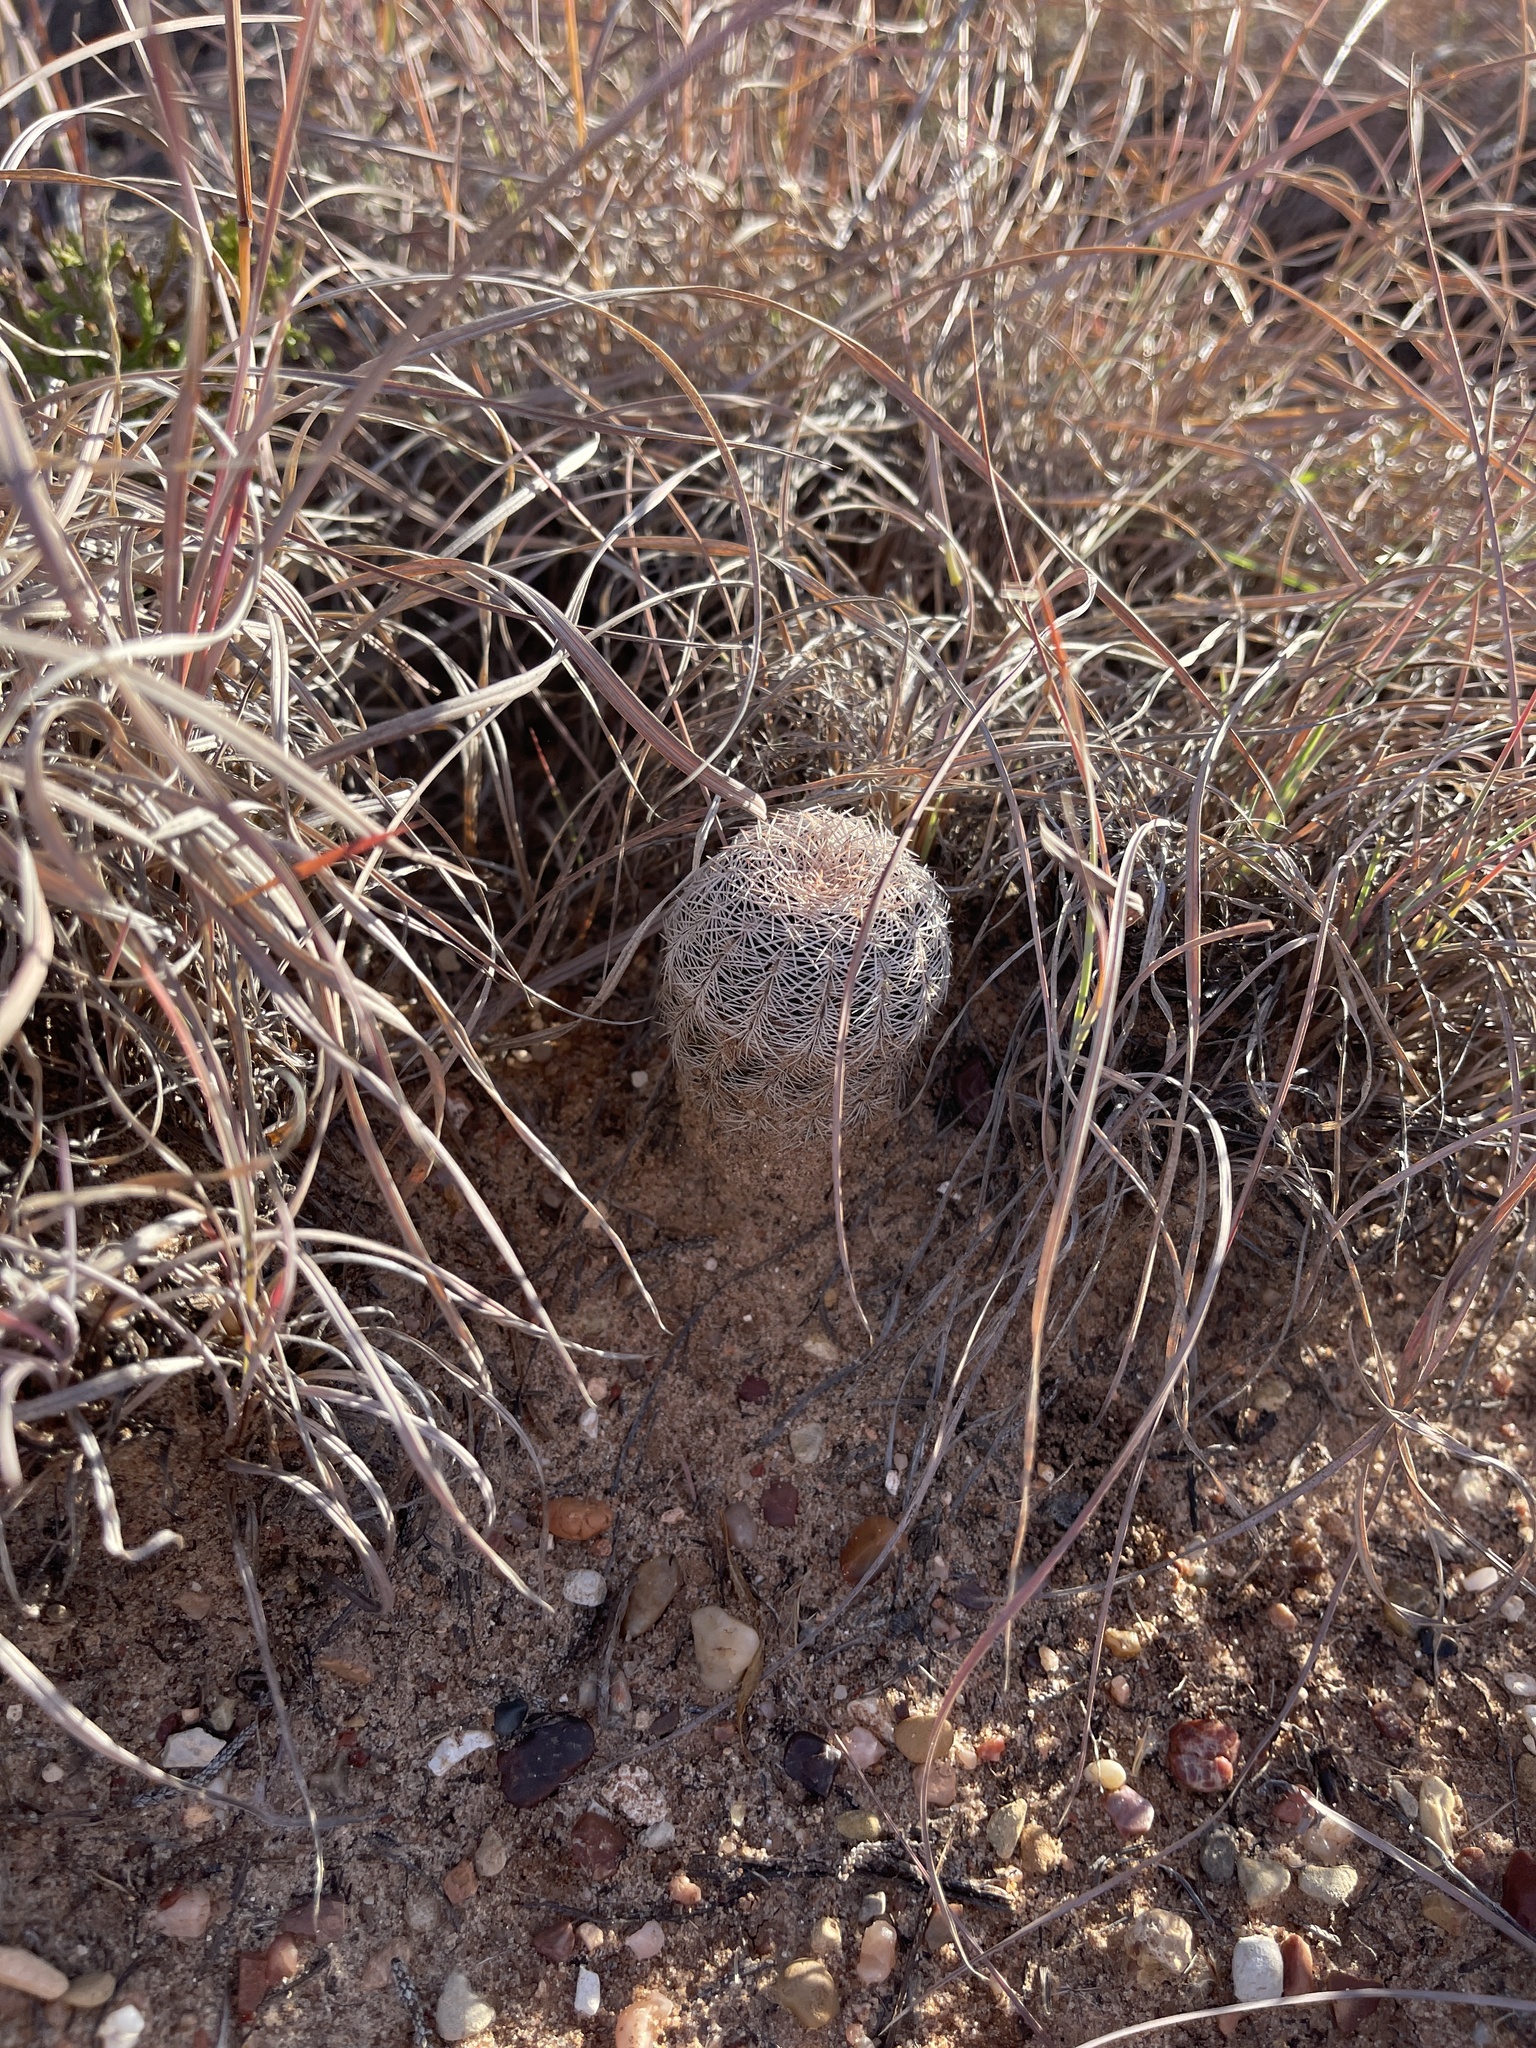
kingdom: Plantae
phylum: Tracheophyta
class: Magnoliopsida
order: Caryophyllales
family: Cactaceae
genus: Echinocereus
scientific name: Echinocereus reichenbachii
